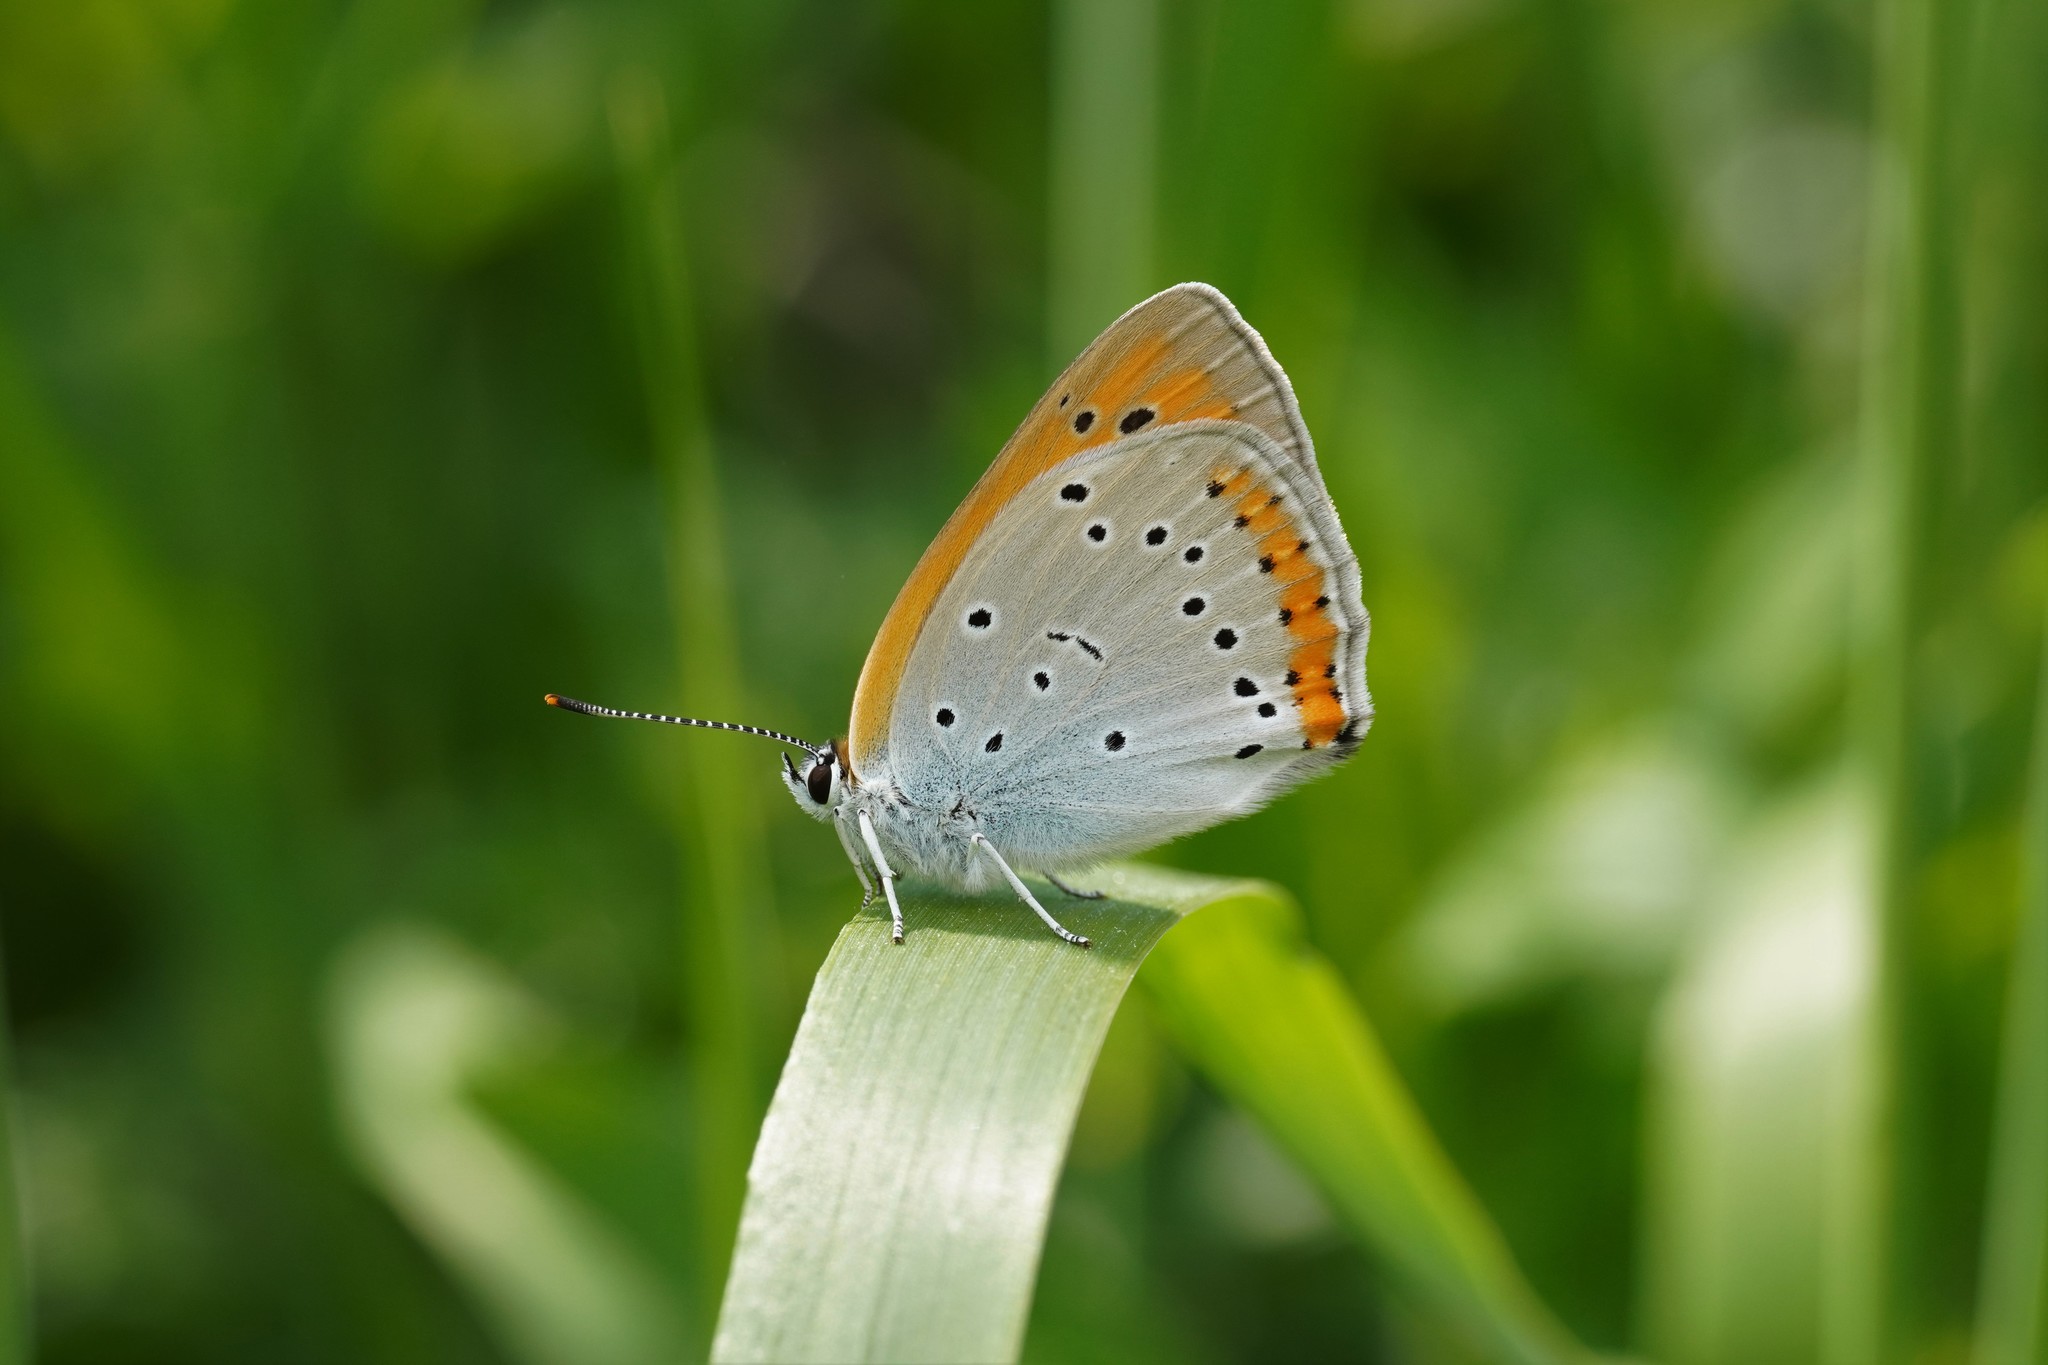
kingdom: Animalia
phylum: Arthropoda
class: Insecta
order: Lepidoptera
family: Lycaenidae
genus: Lycaena
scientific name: Lycaena dispar
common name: Large copper
